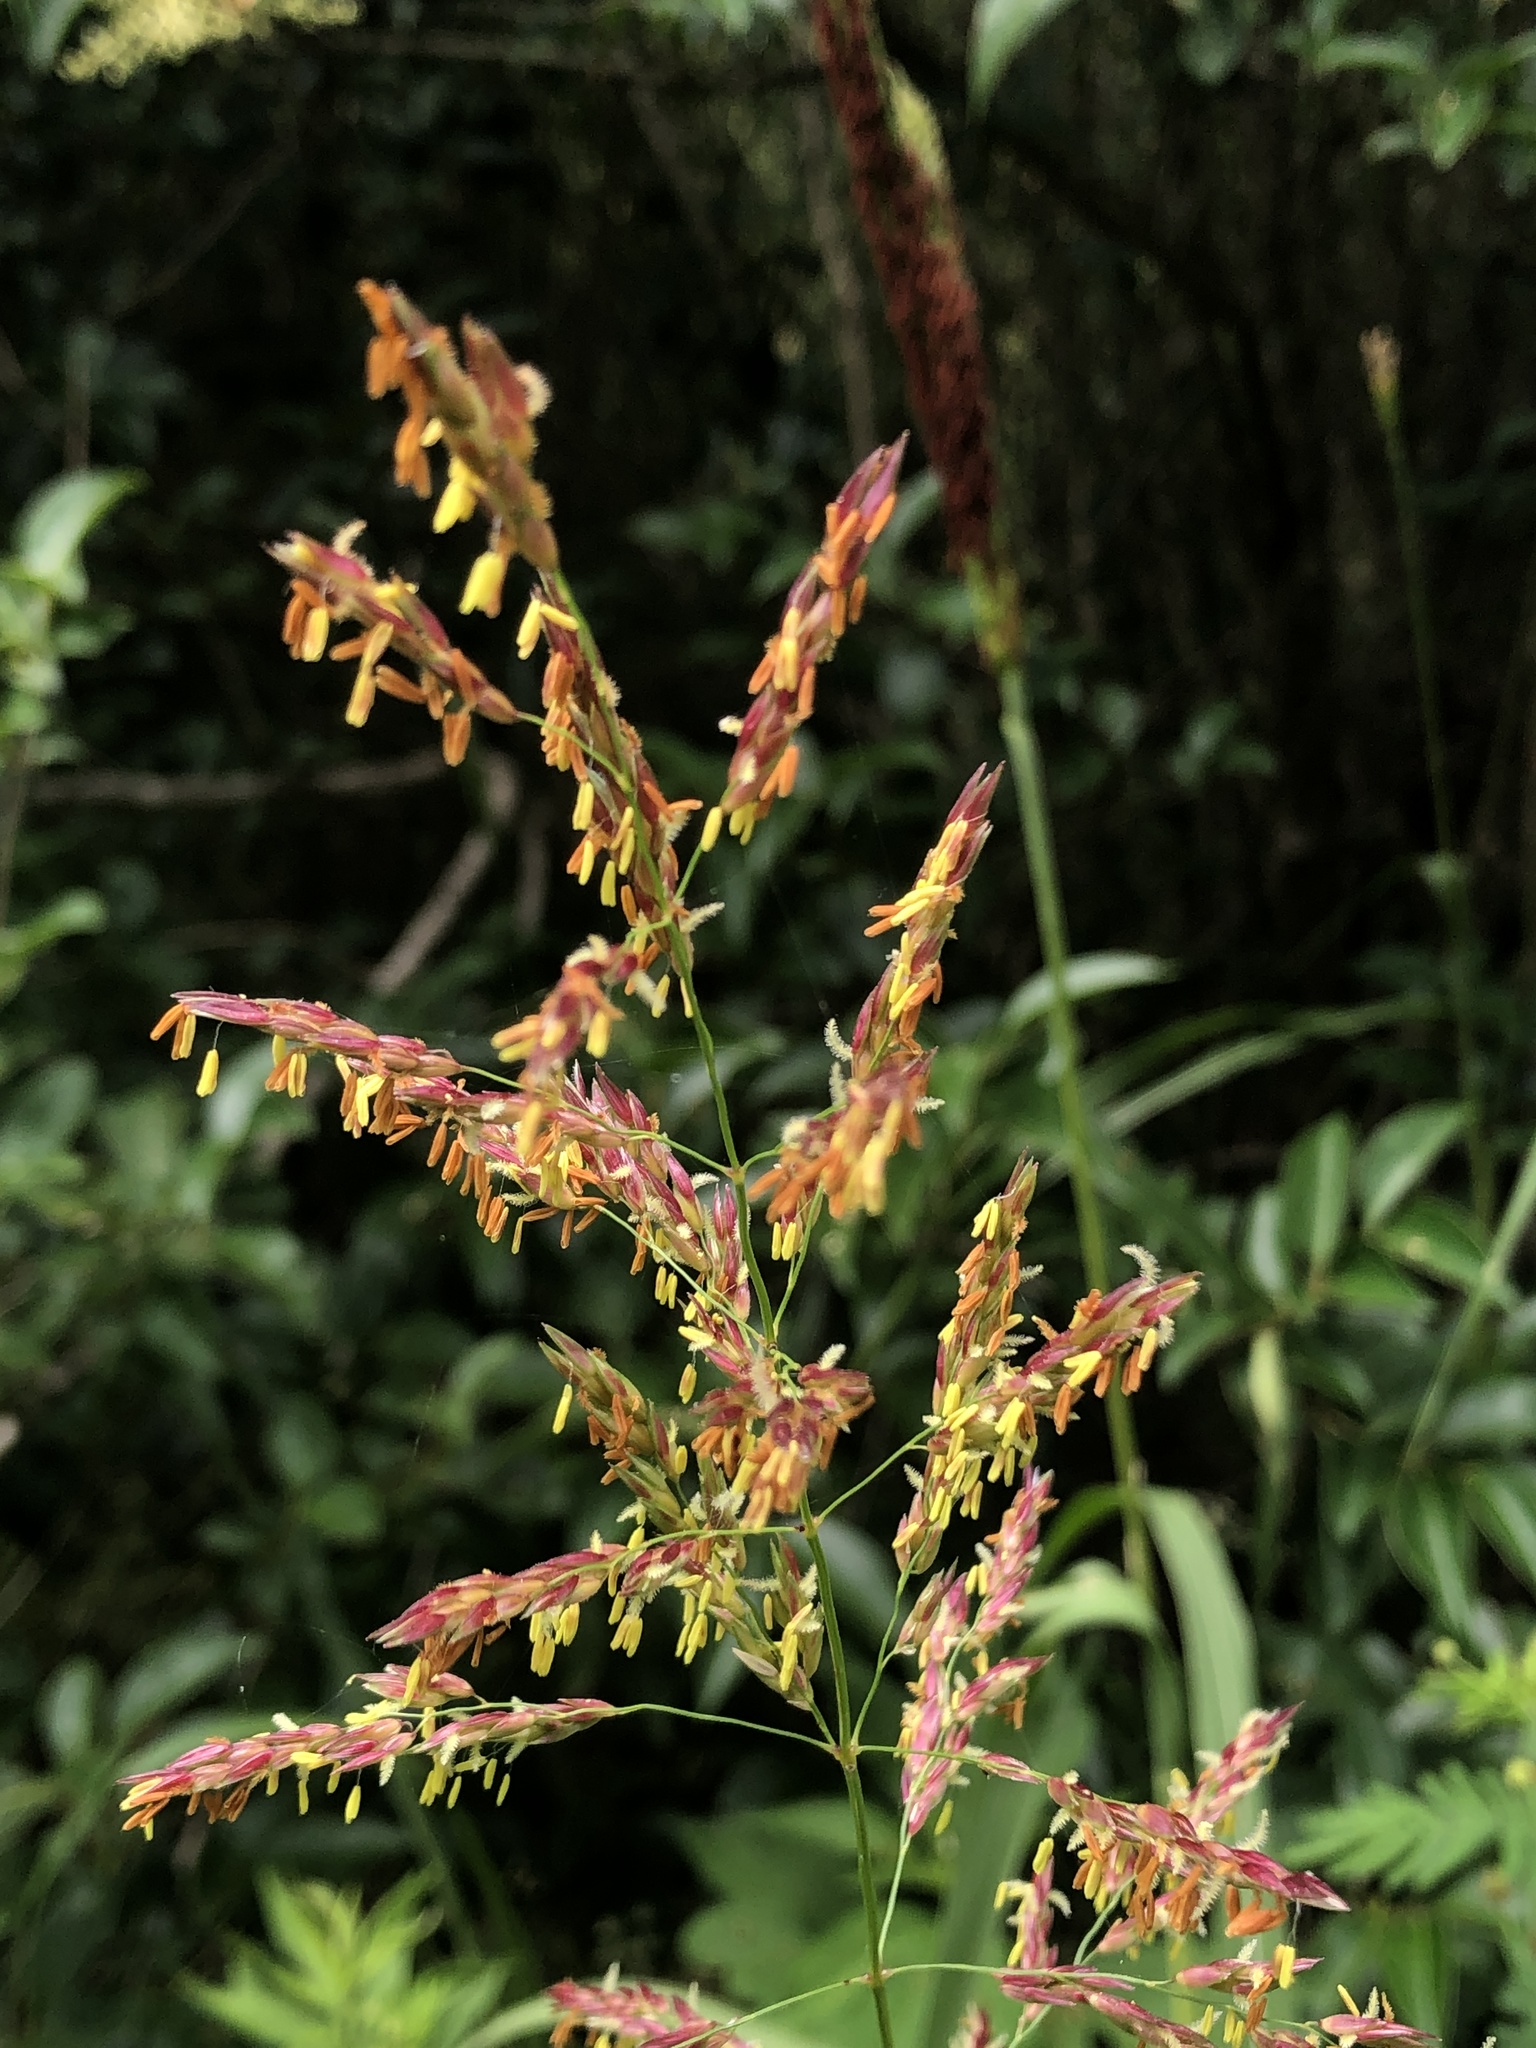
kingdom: Plantae
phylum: Tracheophyta
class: Liliopsida
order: Poales
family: Poaceae
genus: Sorghum
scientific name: Sorghum halepense
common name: Johnson-grass
